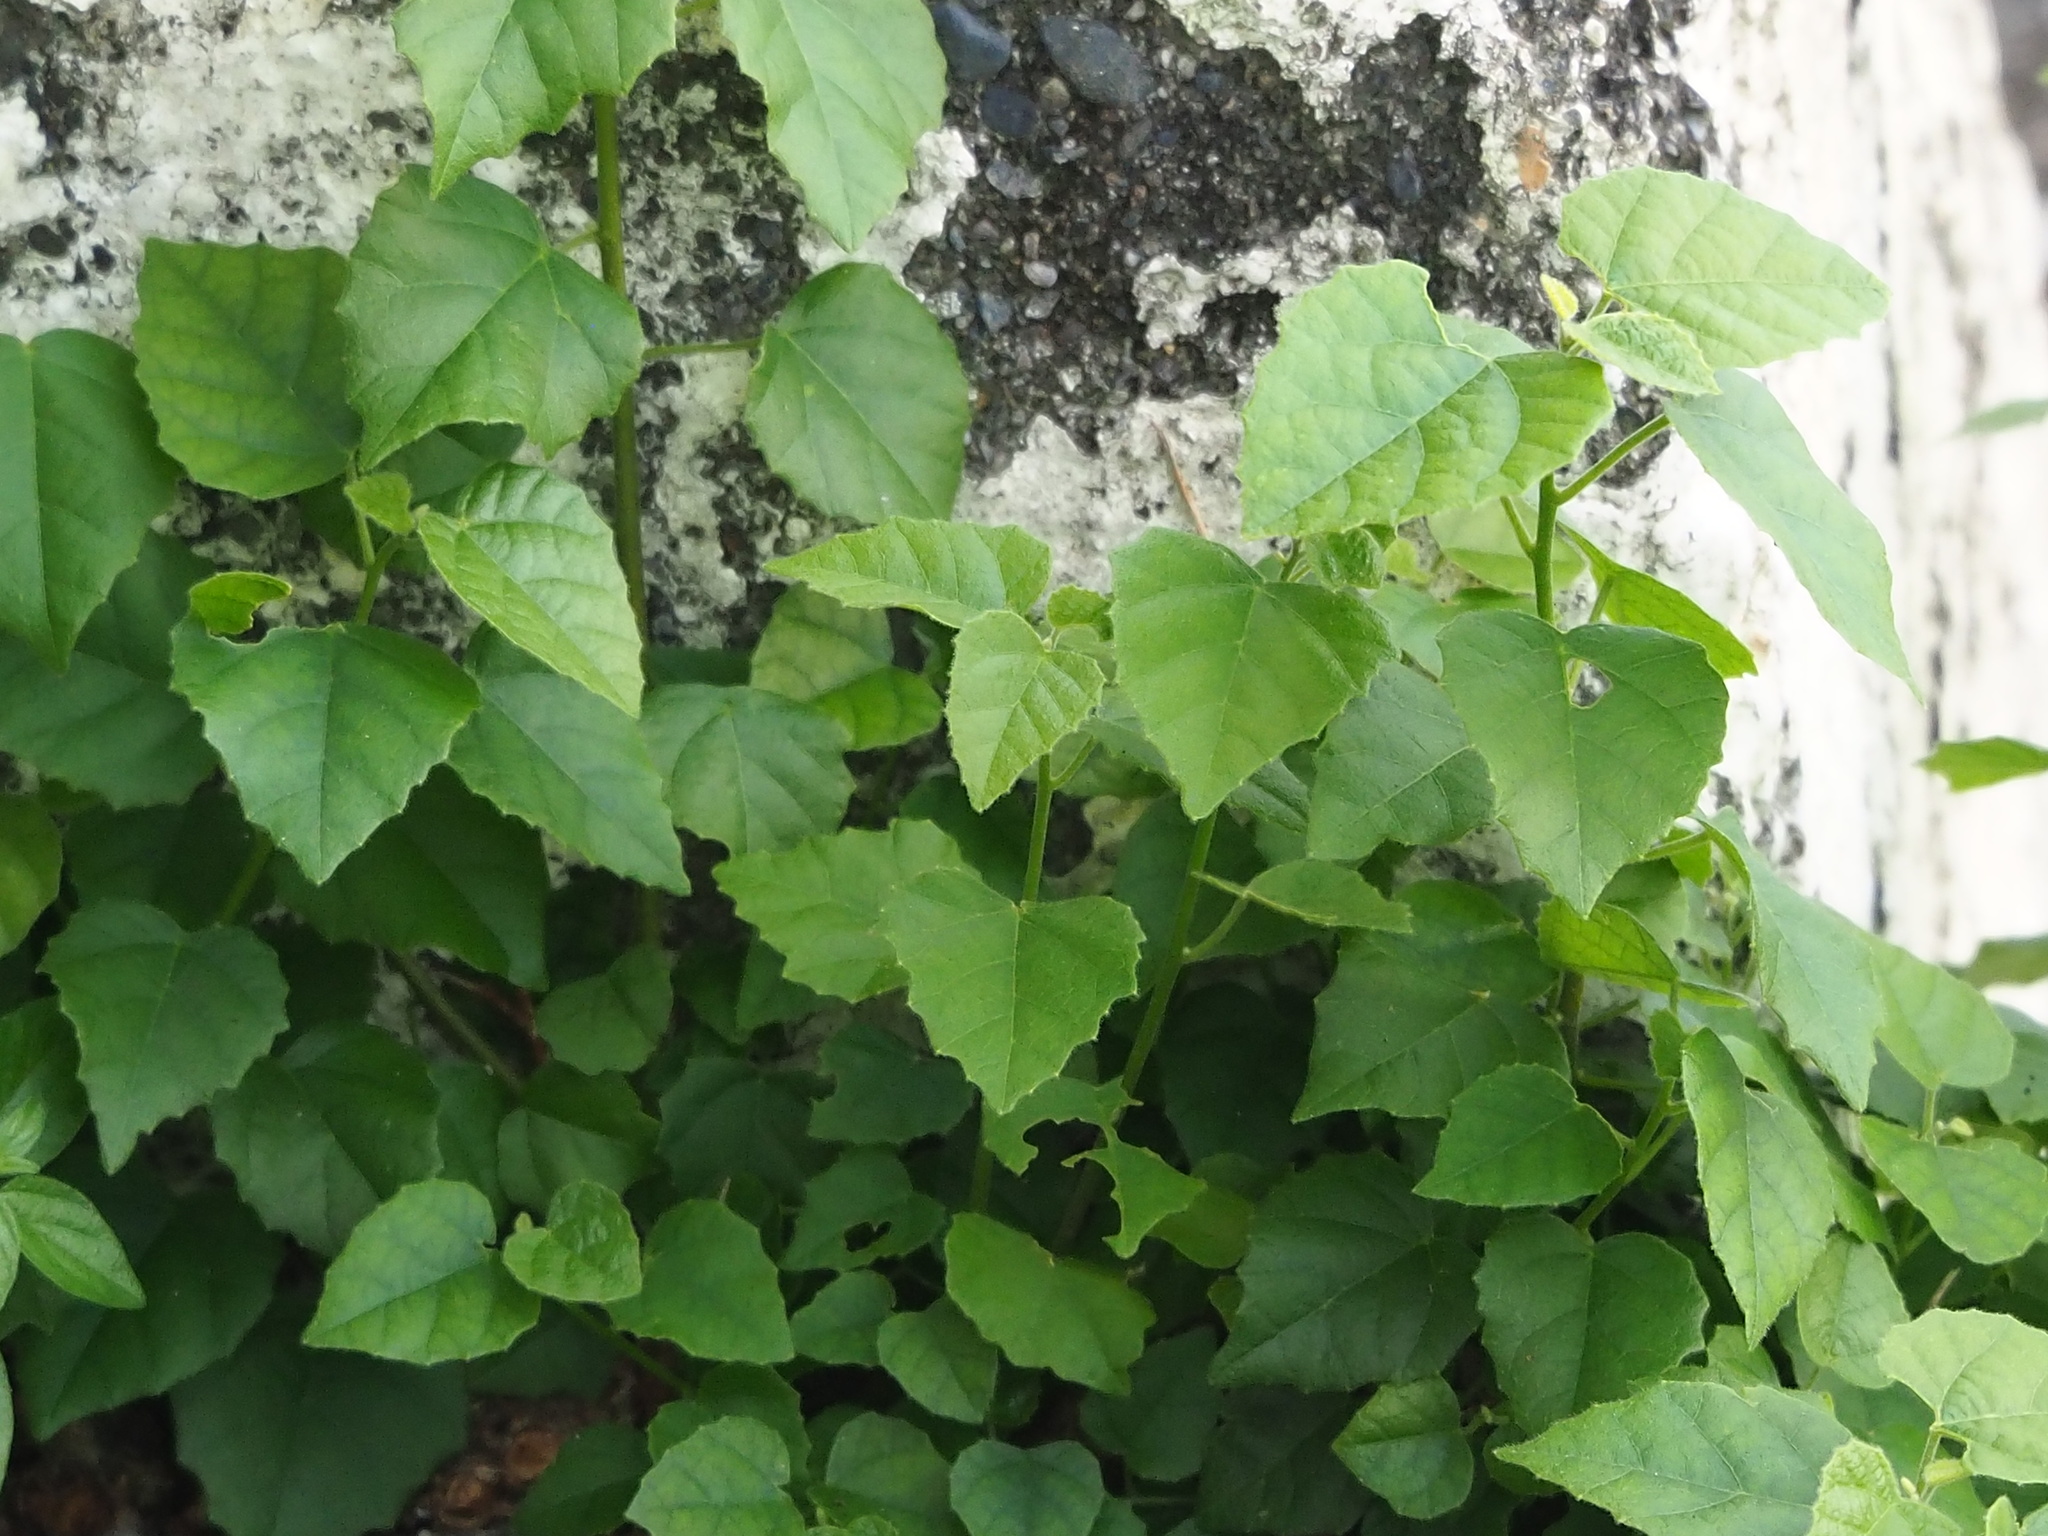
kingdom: Plantae
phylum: Tracheophyta
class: Magnoliopsida
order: Malpighiales
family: Euphorbiaceae
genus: Mallotus
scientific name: Mallotus repandus
